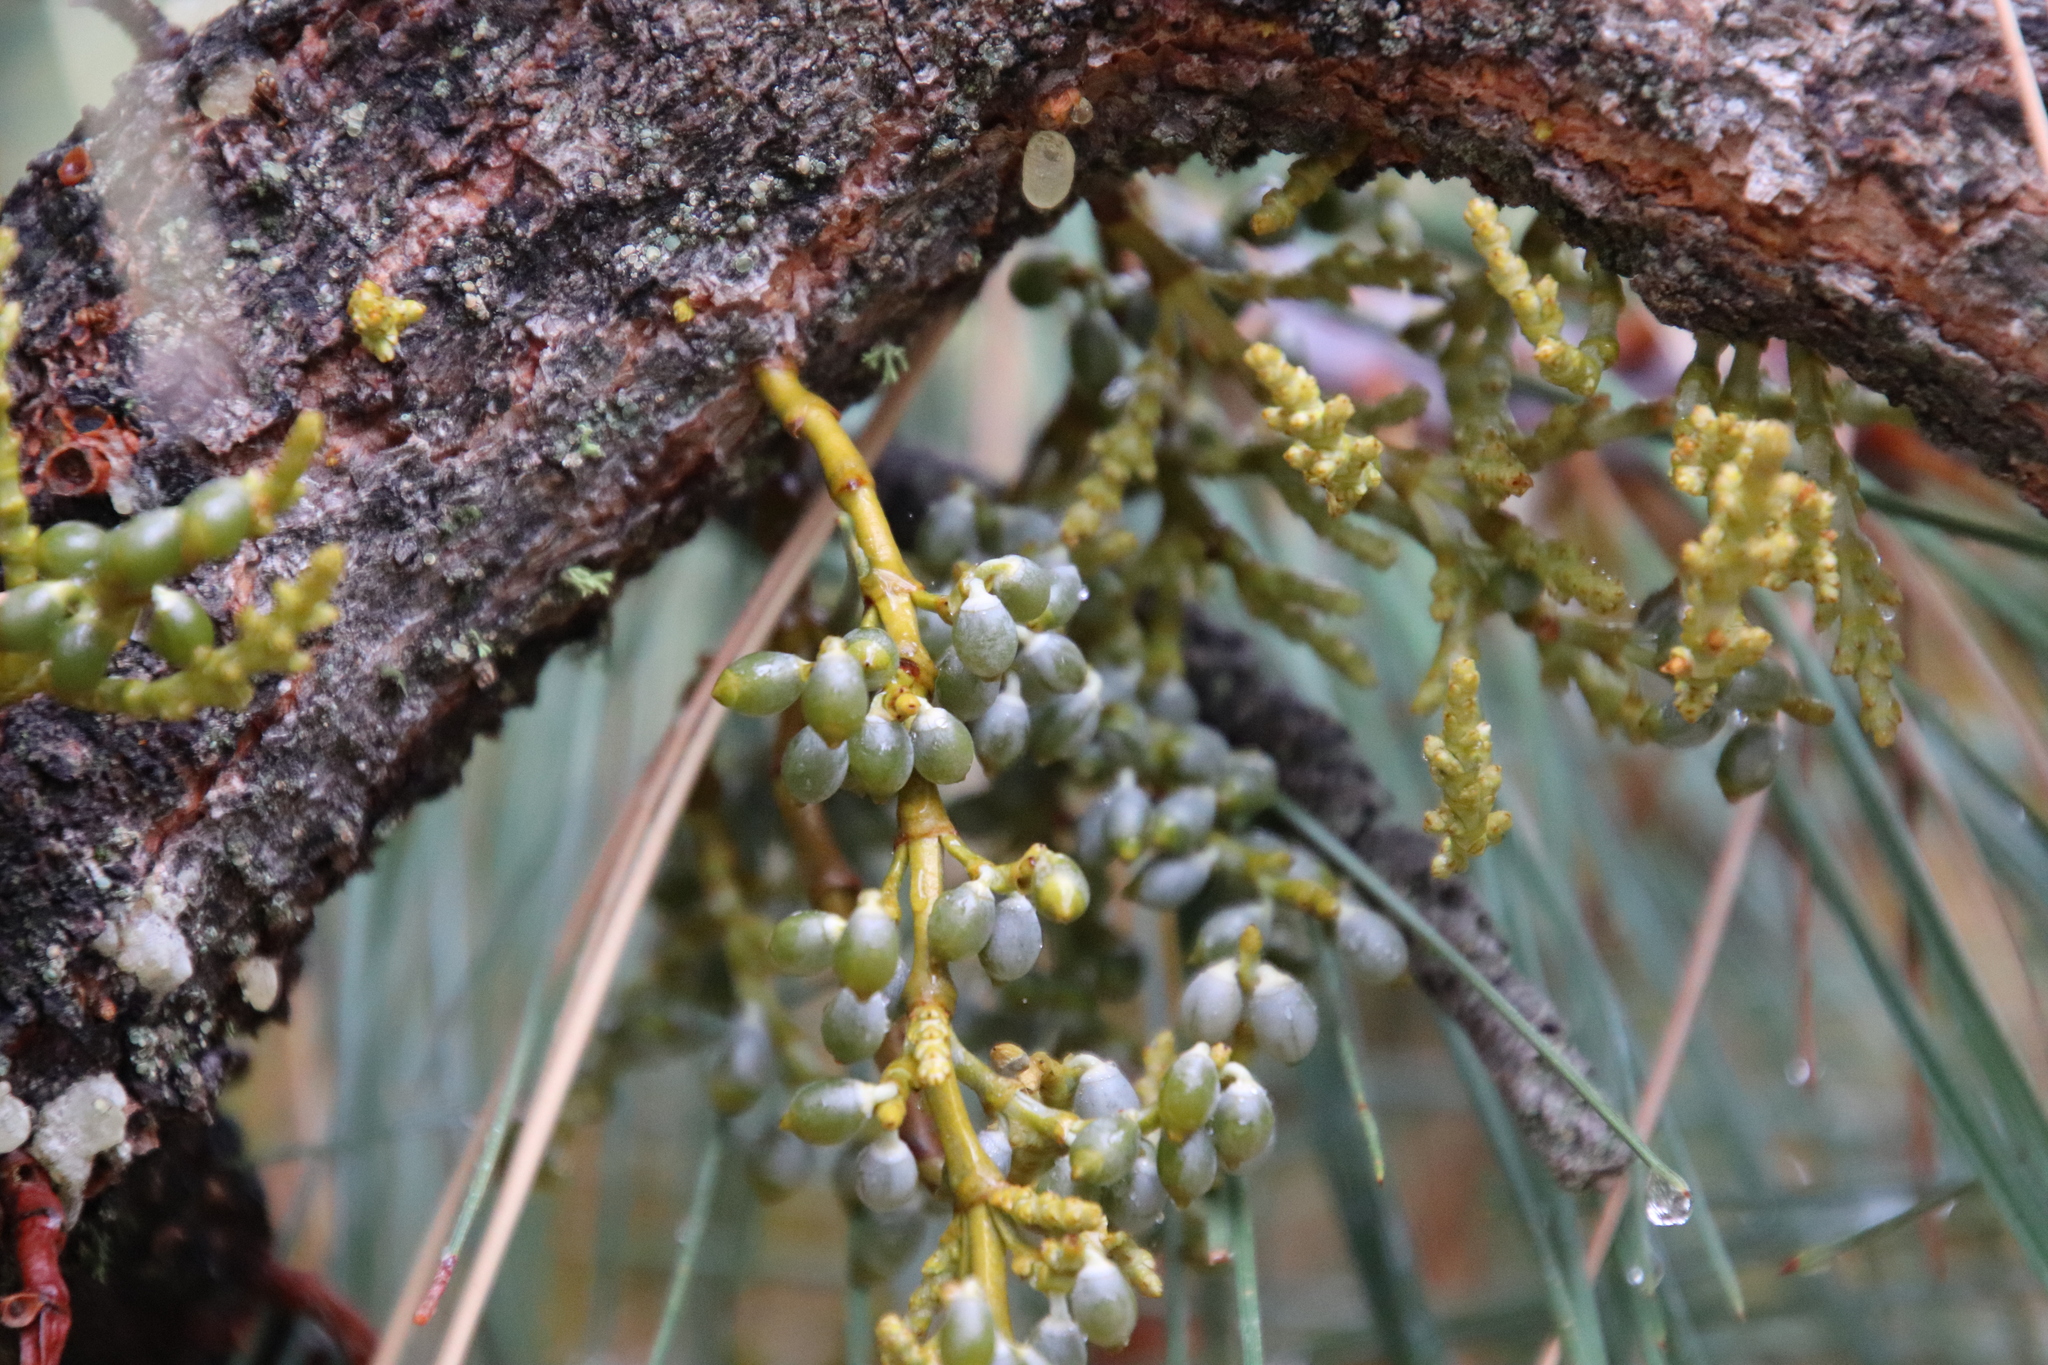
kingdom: Plantae
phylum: Tracheophyta
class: Magnoliopsida
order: Santalales
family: Viscaceae
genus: Arceuthobium
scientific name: Arceuthobium campylopodum
